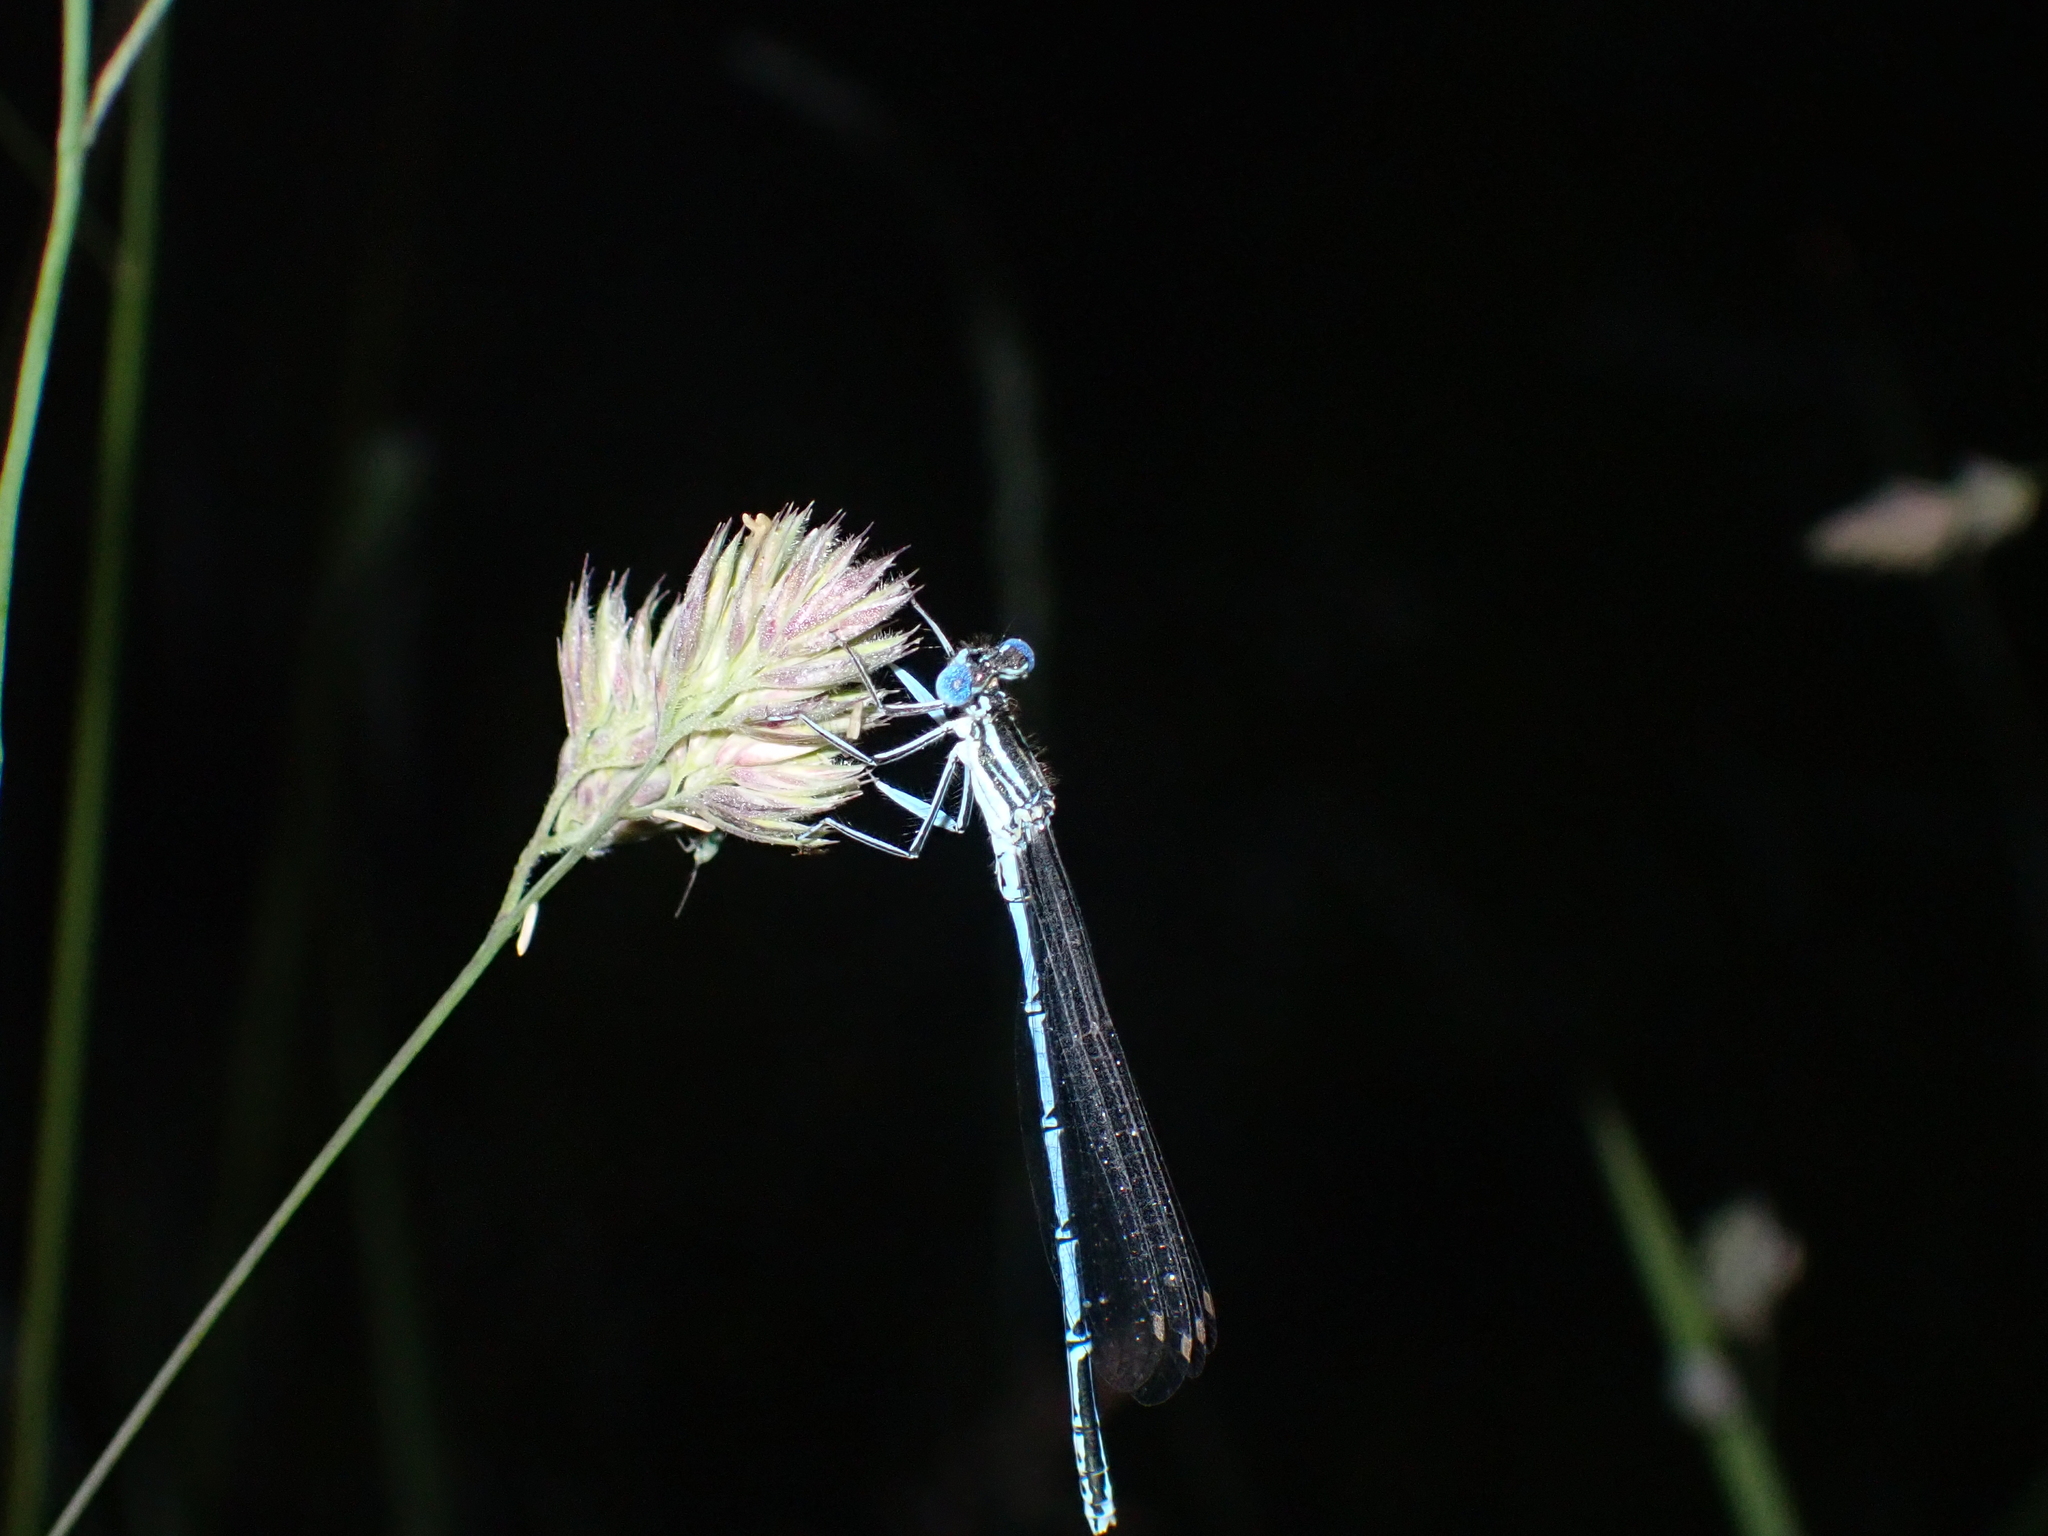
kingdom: Animalia
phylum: Arthropoda
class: Insecta
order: Odonata
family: Platycnemididae
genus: Platycnemis
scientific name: Platycnemis pennipes
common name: White-legged damselfly
